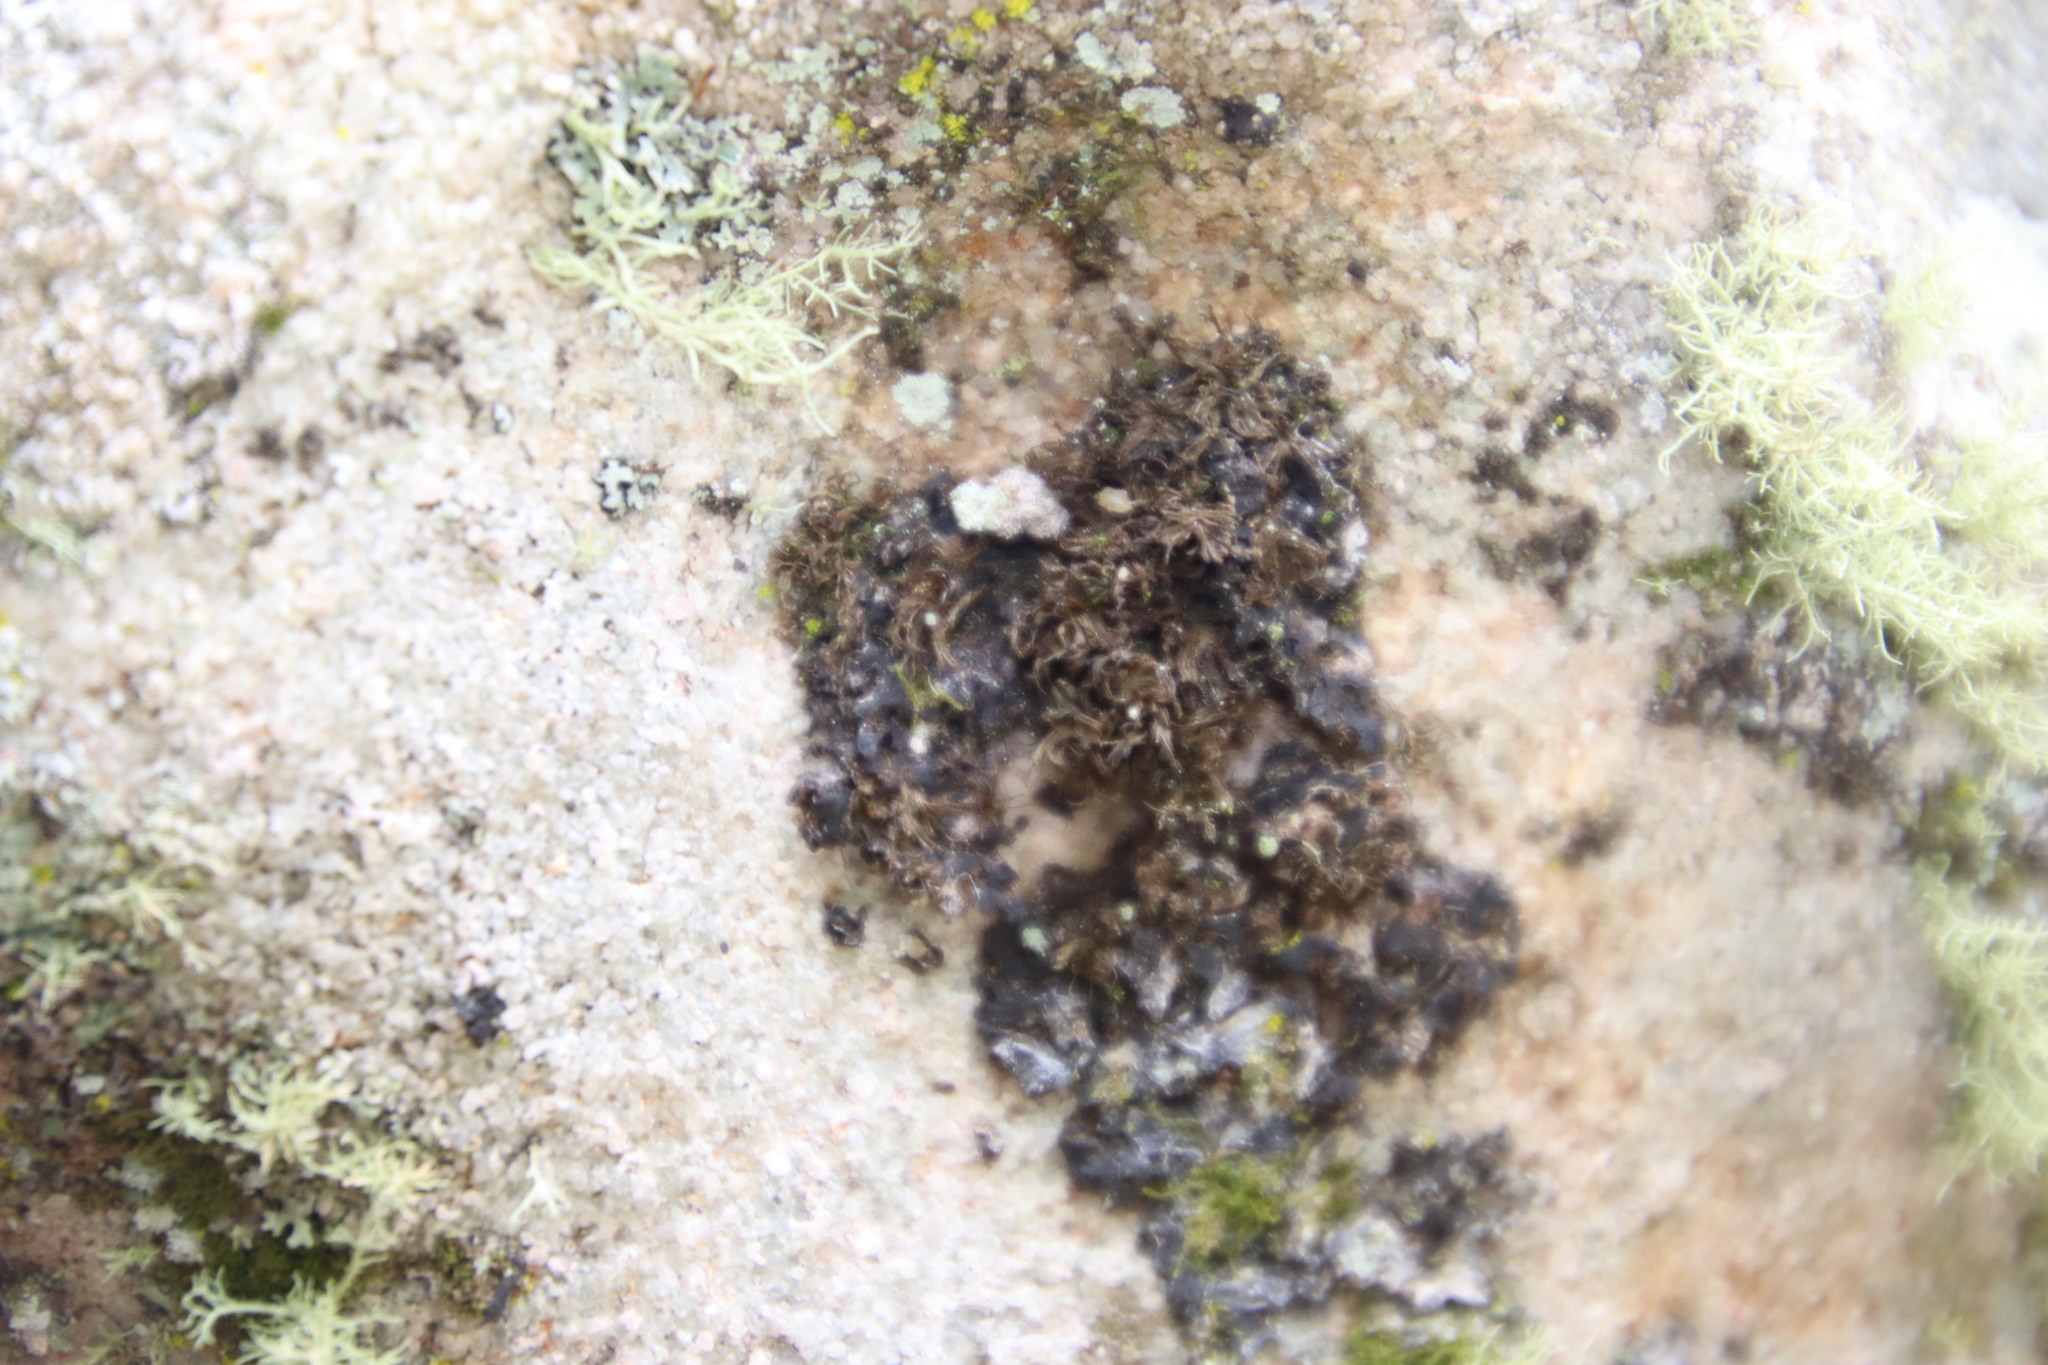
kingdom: Fungi
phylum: Ascomycota
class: Arthoniomycetes
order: Arthoniales
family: Chrysotrichaceae
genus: Chrysothrix
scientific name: Chrysothrix candelaris
